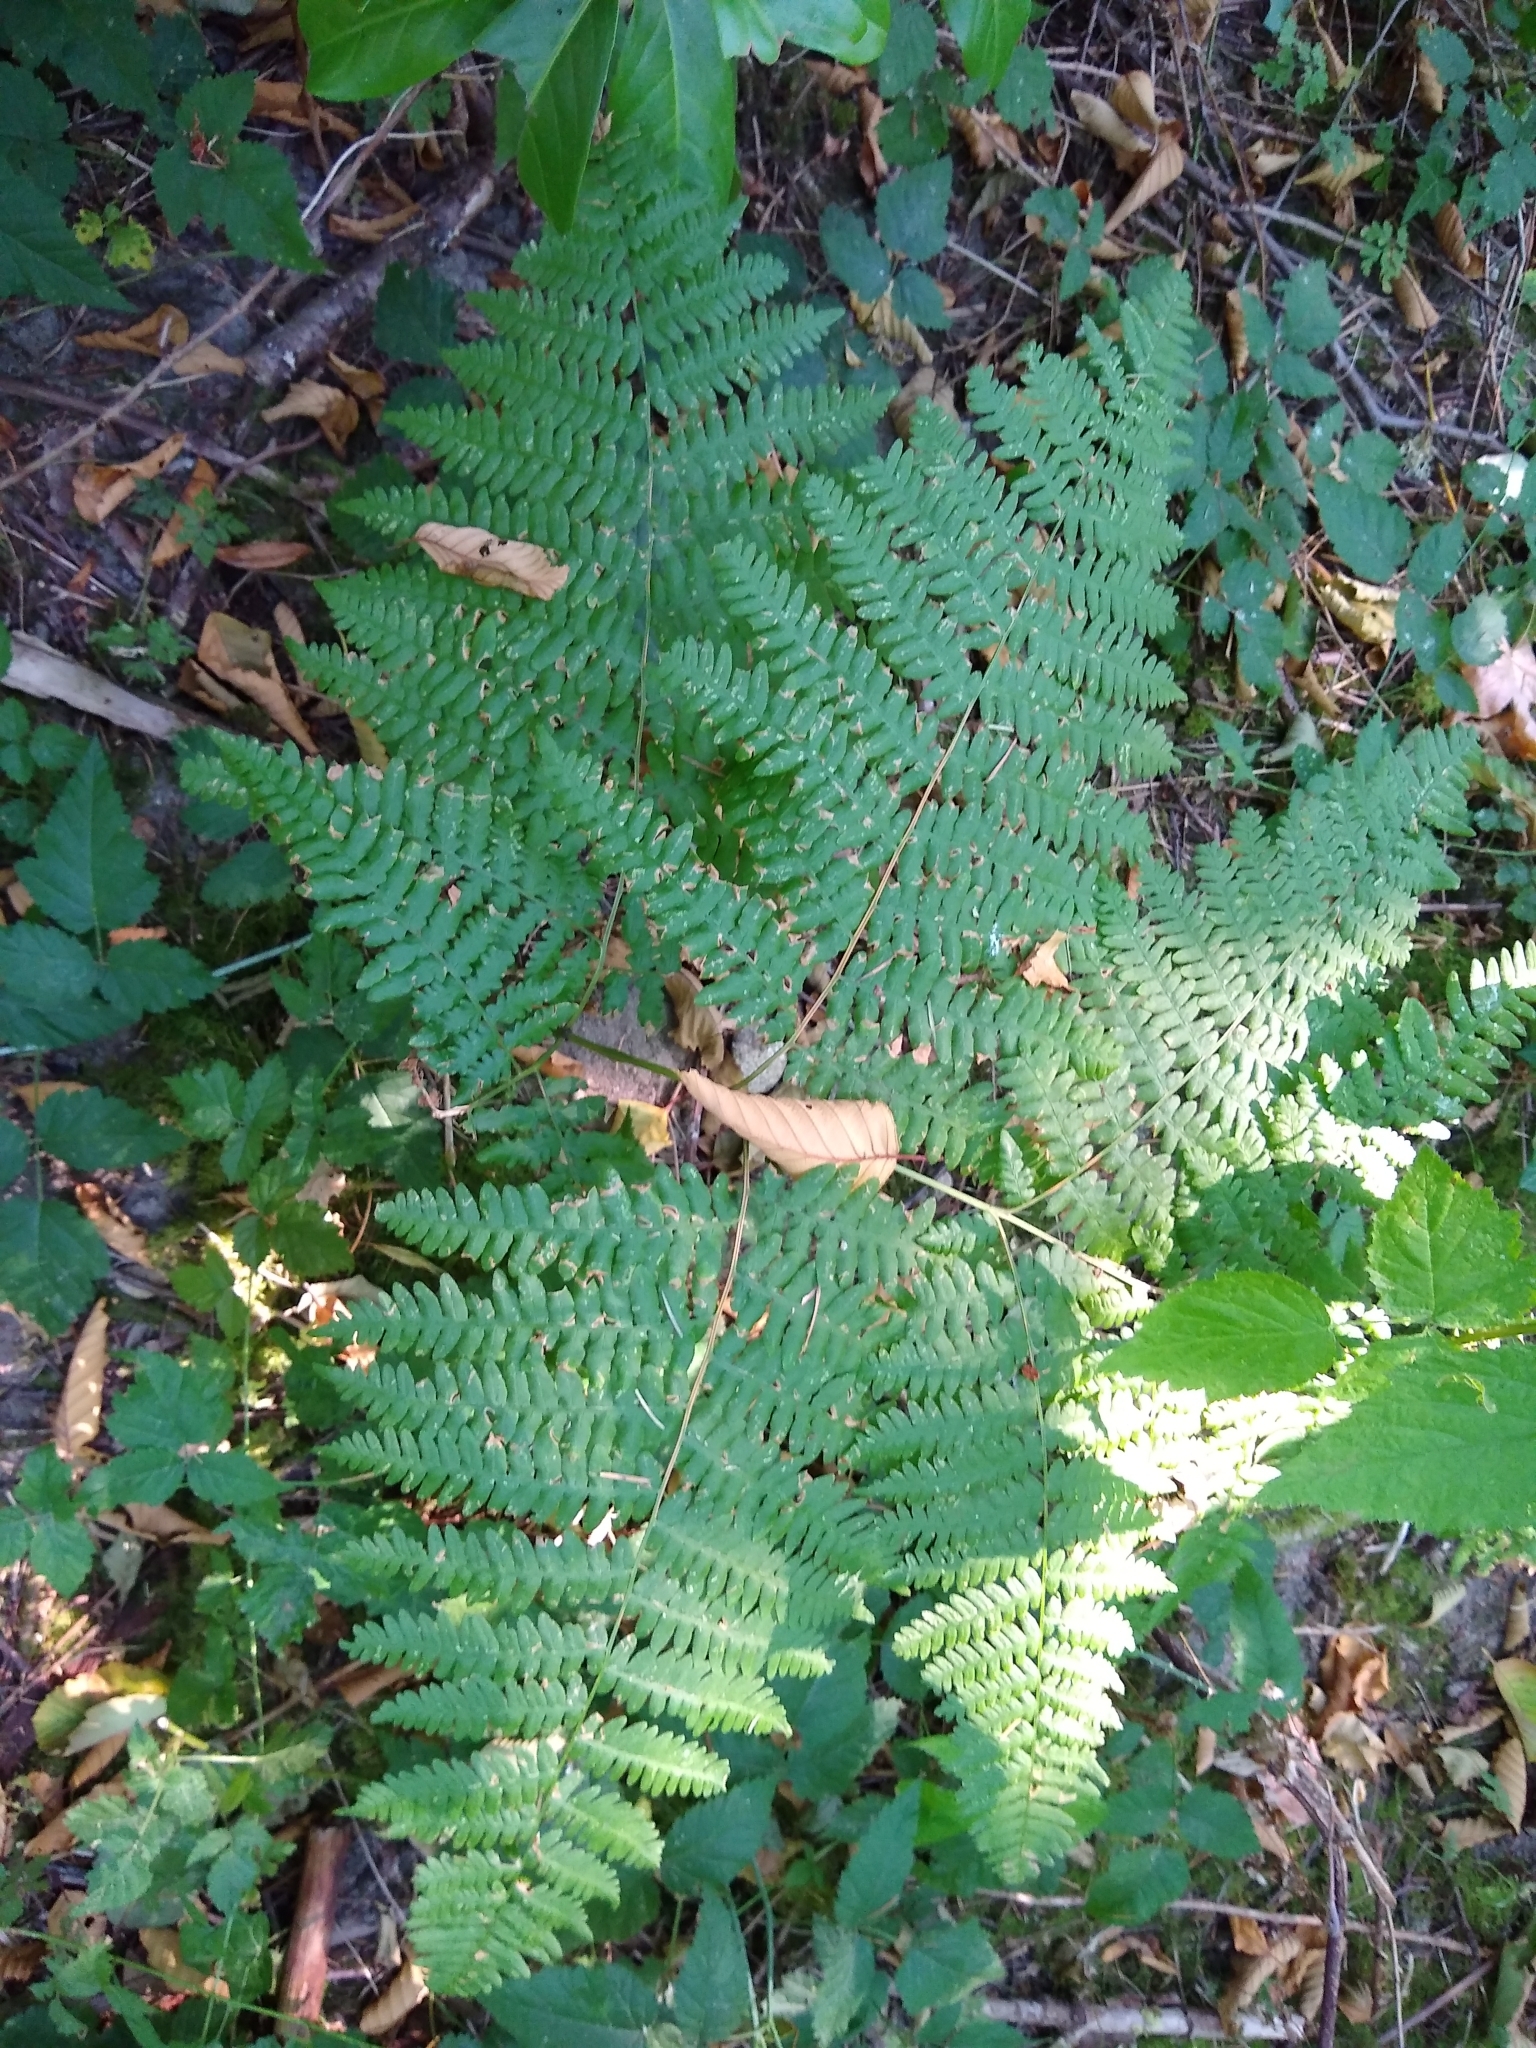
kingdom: Plantae
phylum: Tracheophyta
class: Polypodiopsida
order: Polypodiales
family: Dennstaedtiaceae
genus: Pteridium
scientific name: Pteridium aquilinum
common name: Bracken
